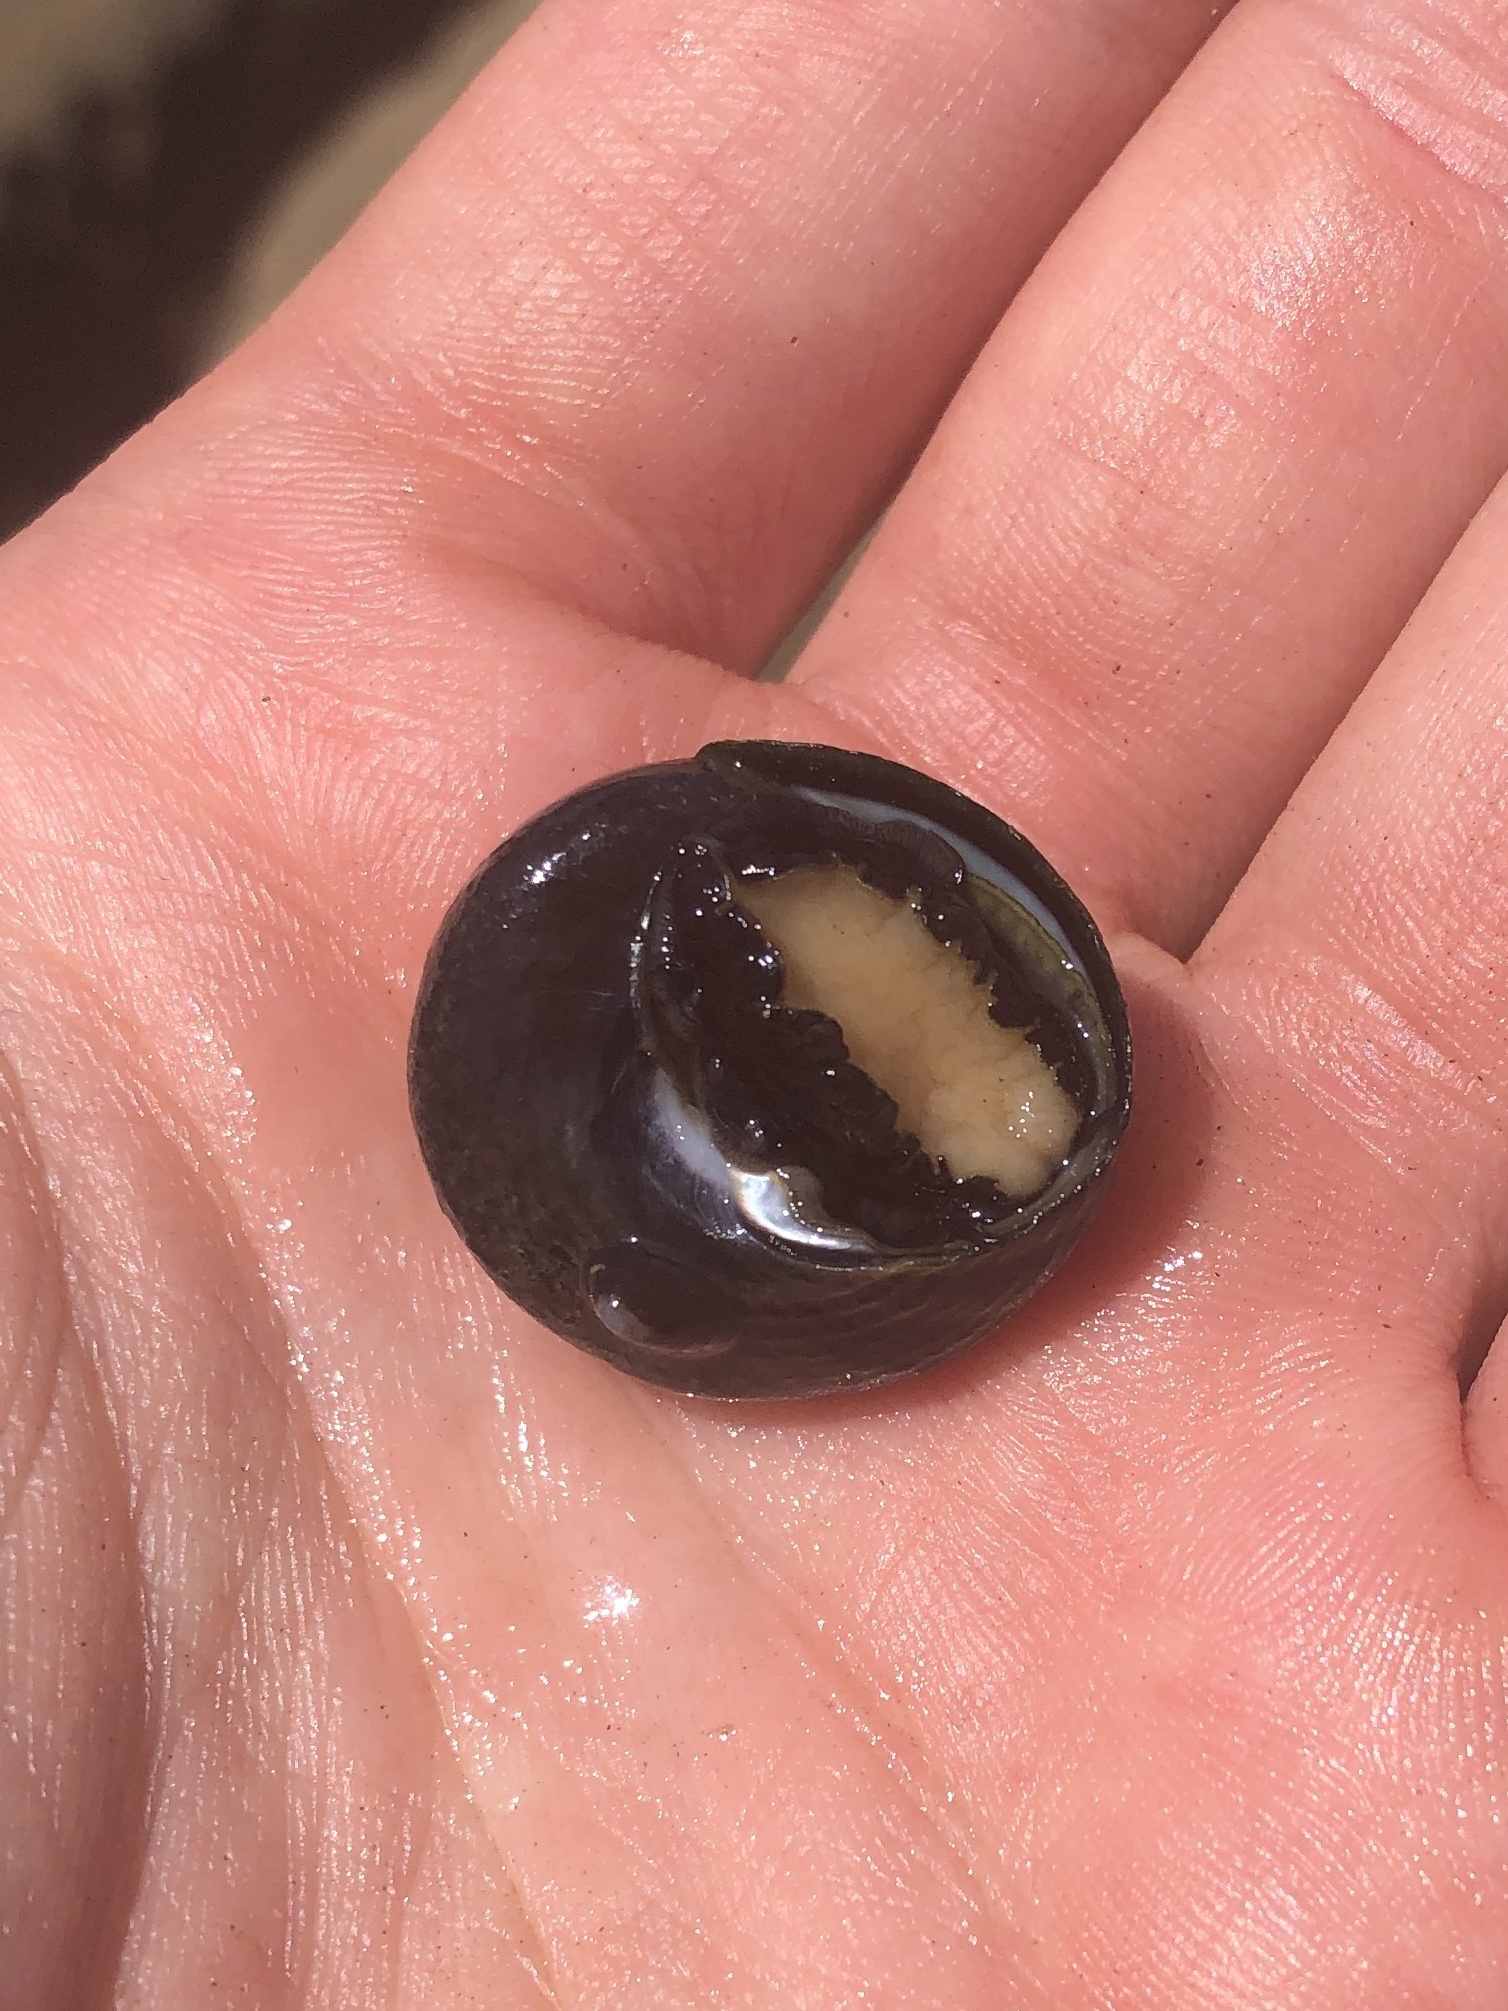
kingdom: Animalia
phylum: Mollusca
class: Gastropoda
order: Trochida
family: Tegulidae
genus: Tegula
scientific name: Tegula gallina
